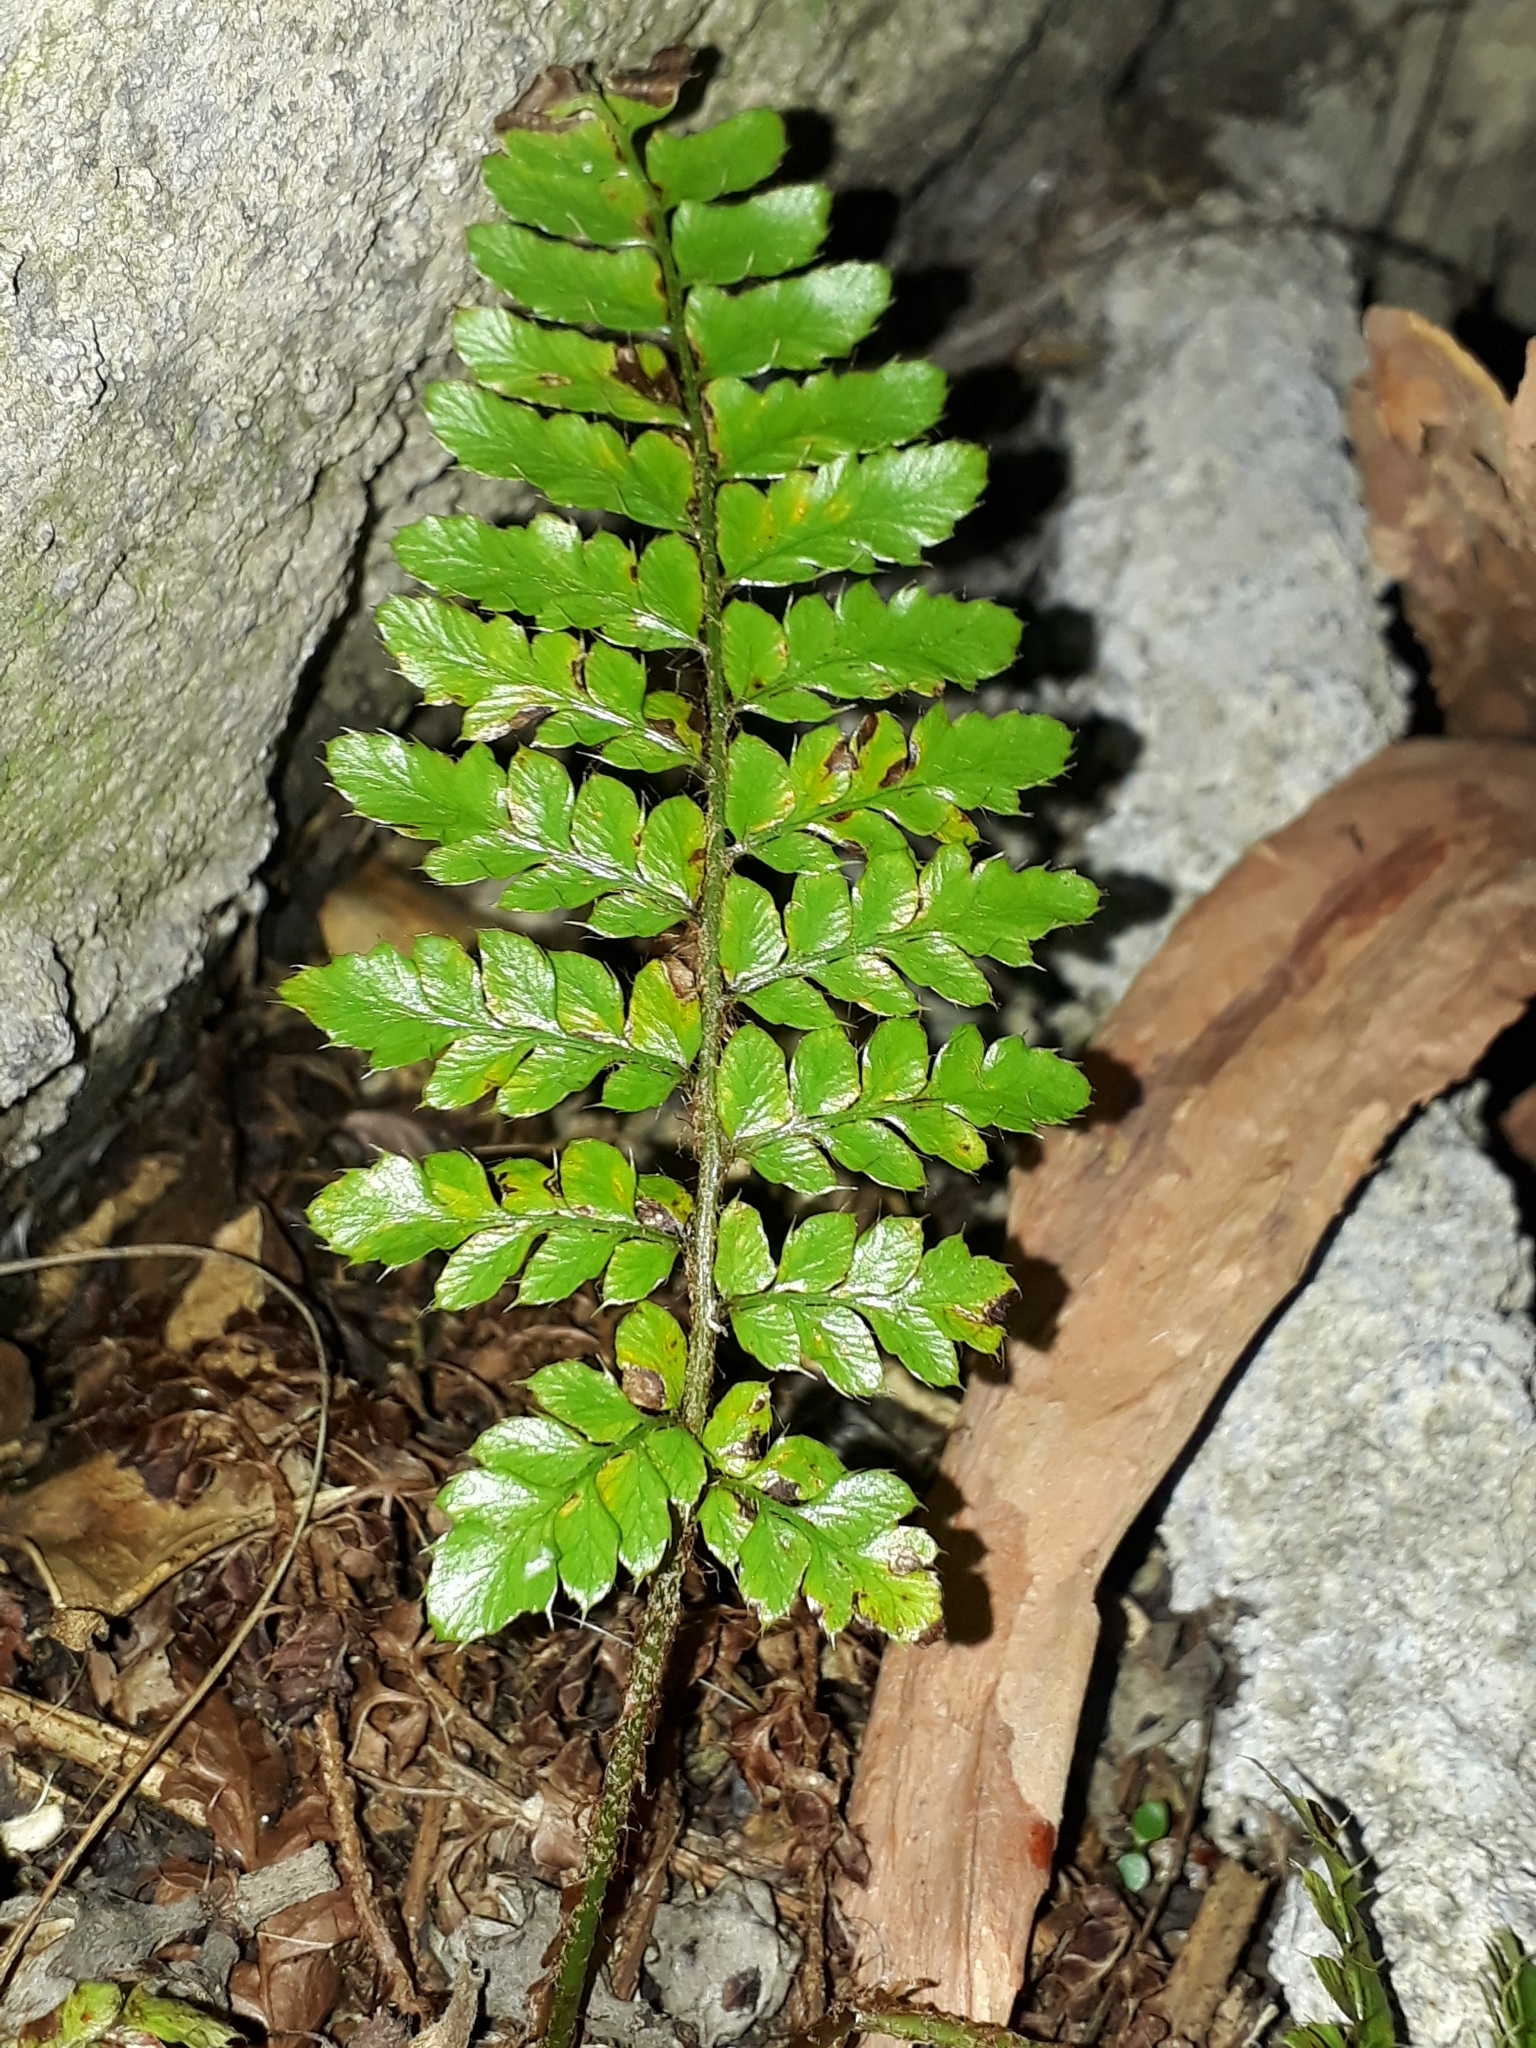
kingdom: Plantae
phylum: Tracheophyta
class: Polypodiopsida
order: Polypodiales
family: Dryopteridaceae
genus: Polystichum
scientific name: Polystichum luctuosum
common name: Korean rockfern
